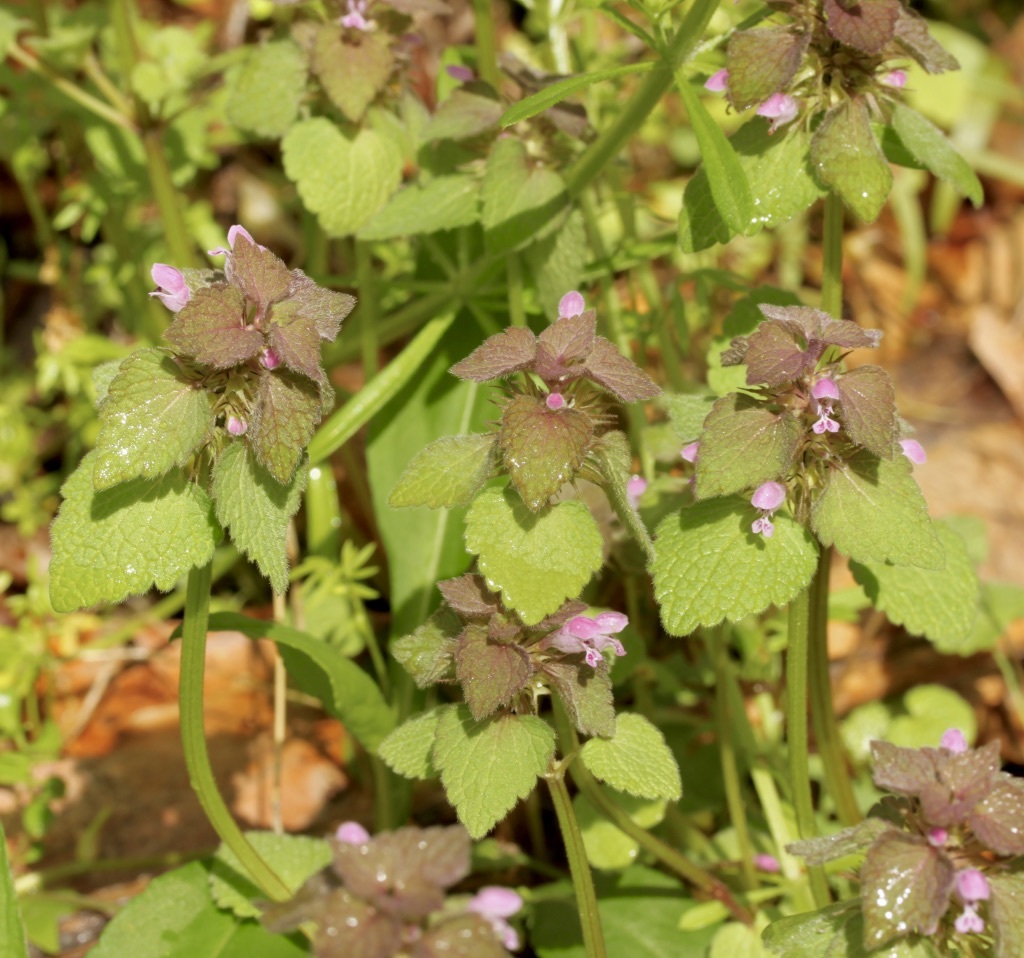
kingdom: Plantae
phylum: Tracheophyta
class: Magnoliopsida
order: Lamiales
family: Lamiaceae
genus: Lamium
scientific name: Lamium purpureum
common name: Red dead-nettle
